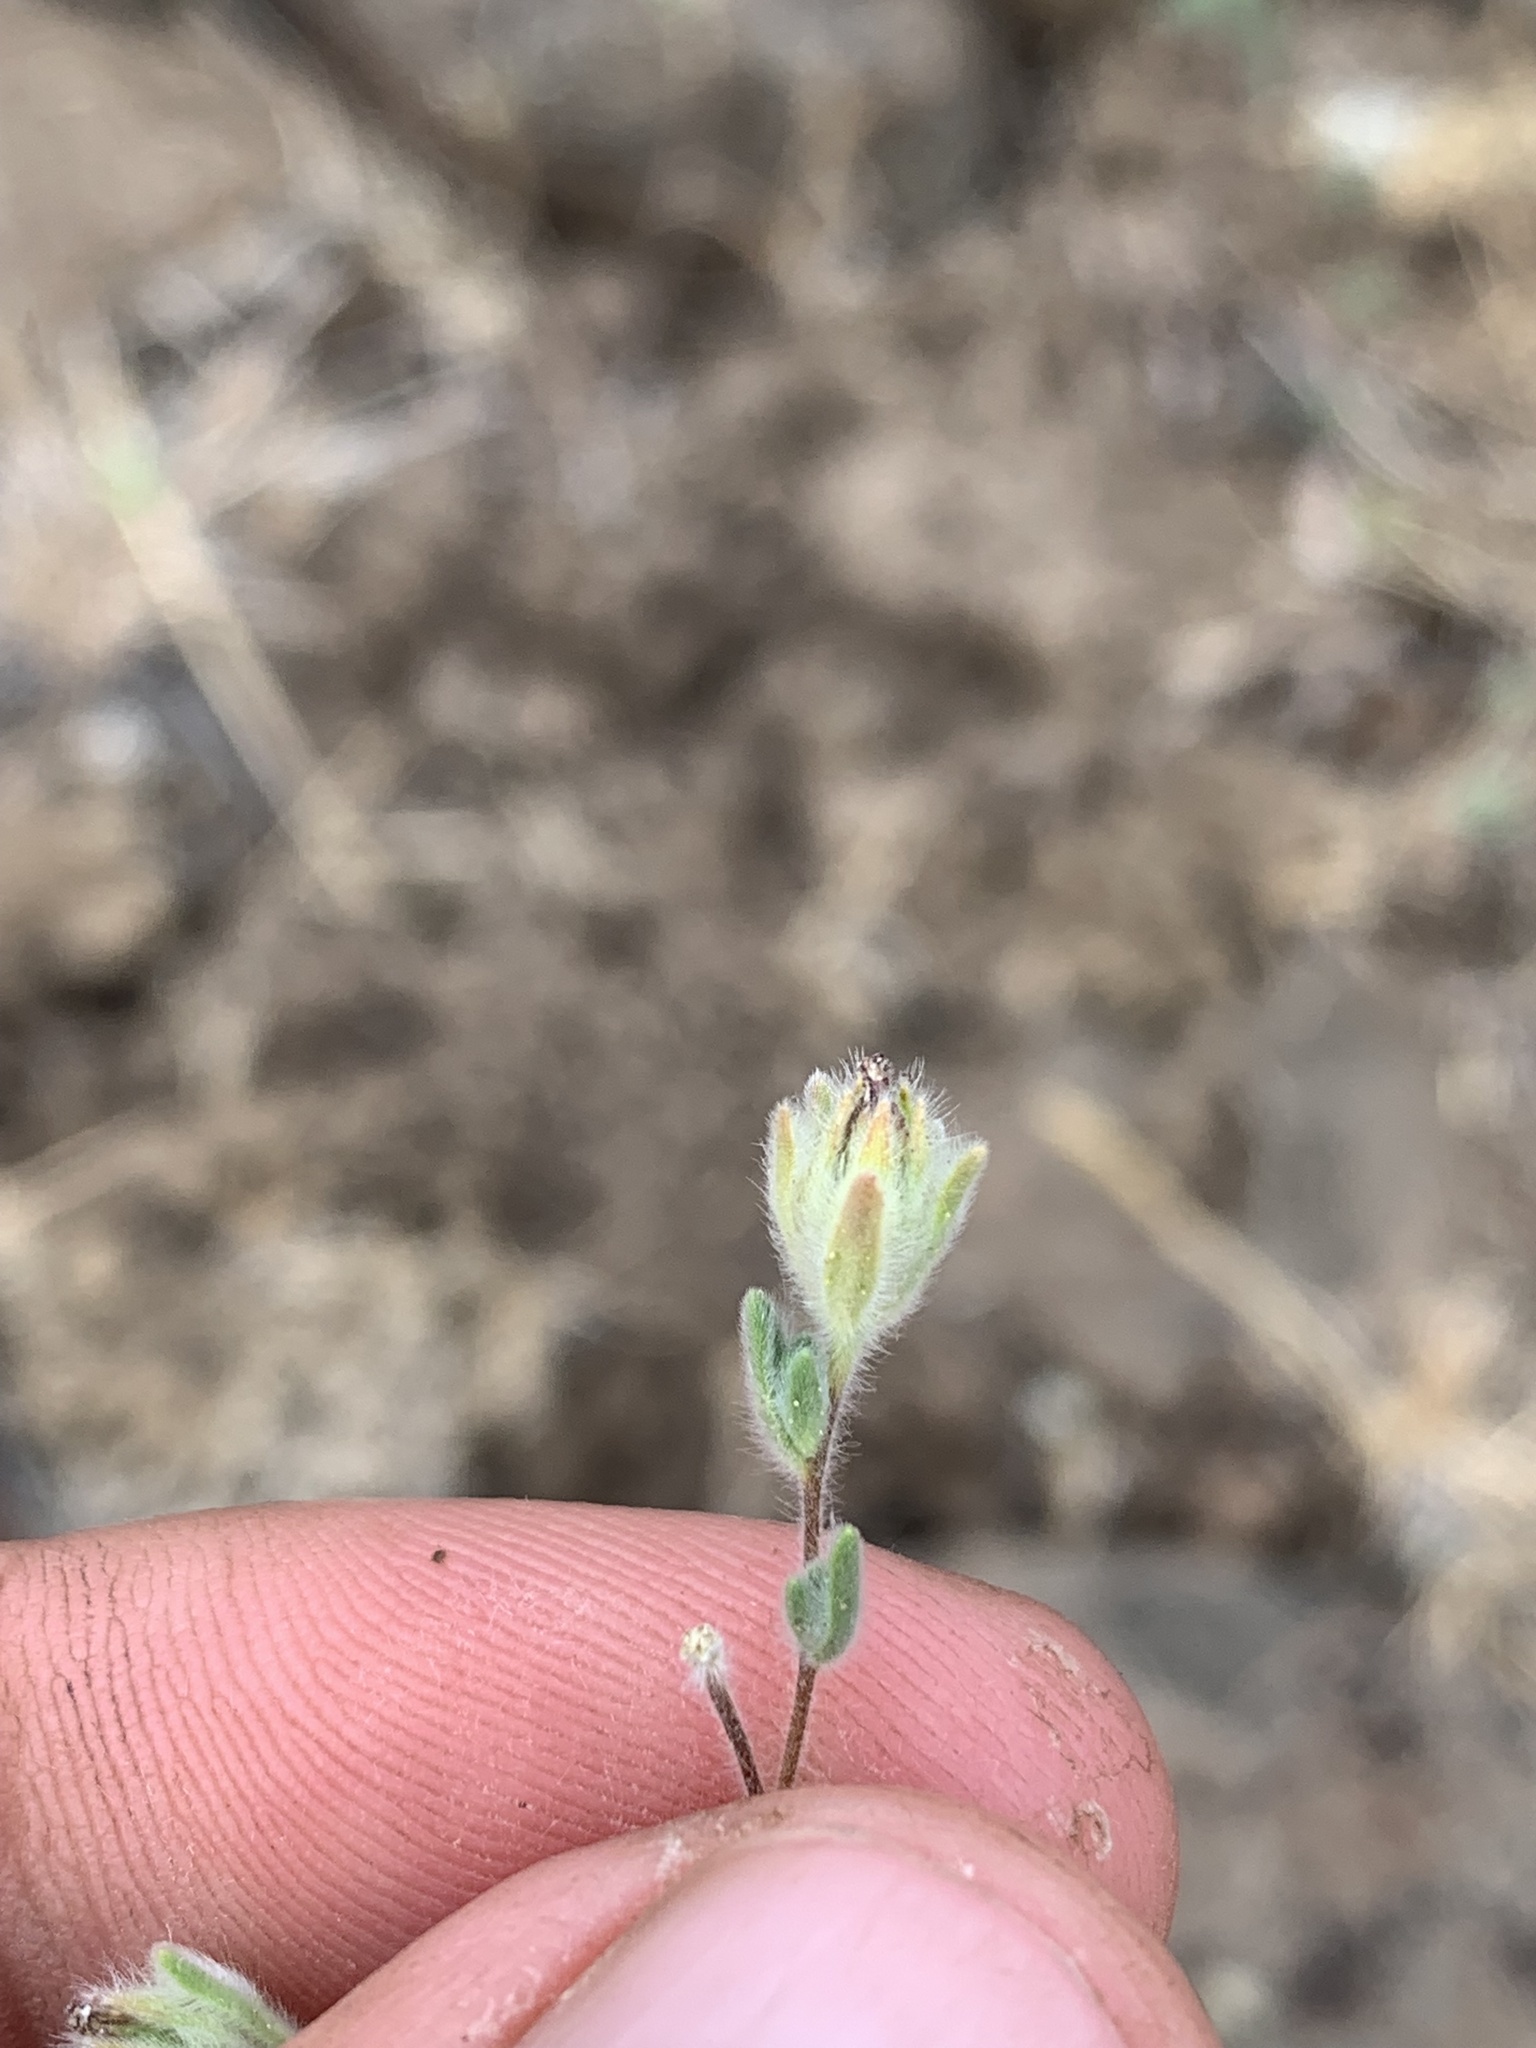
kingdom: Plantae
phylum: Tracheophyta
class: Magnoliopsida
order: Asterales
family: Asteraceae
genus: Lagophylla
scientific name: Lagophylla ramosissima
